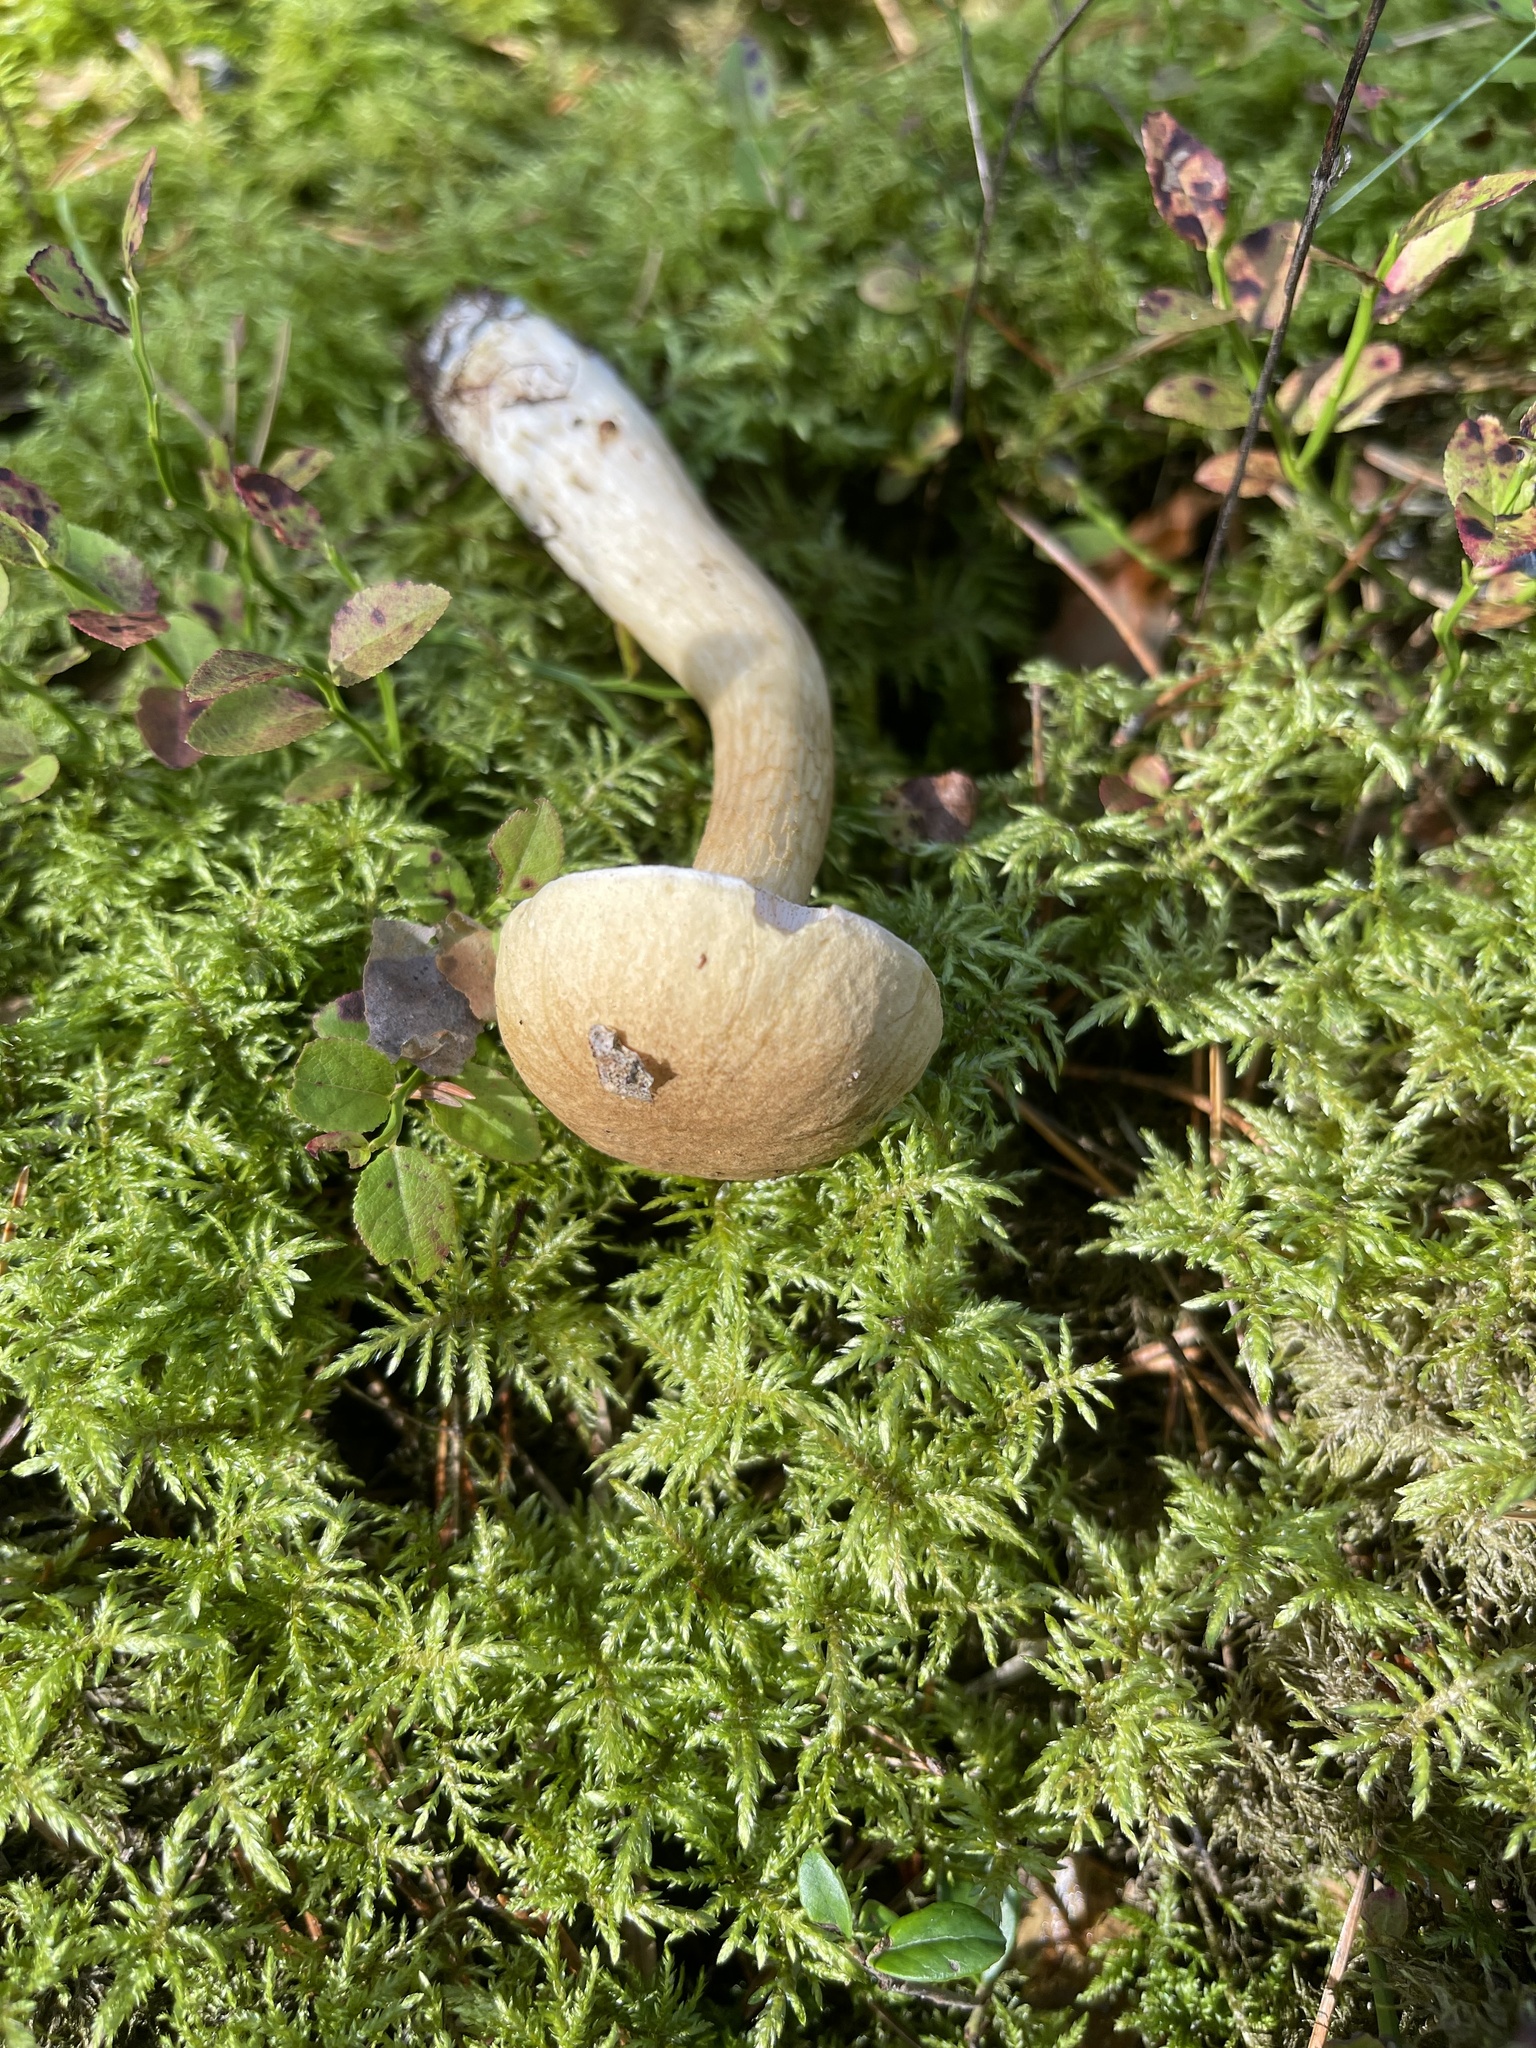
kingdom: Fungi
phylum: Basidiomycota
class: Agaricomycetes
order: Boletales
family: Boletaceae
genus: Tylopilus
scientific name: Tylopilus felleus
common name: Bitter bolete
